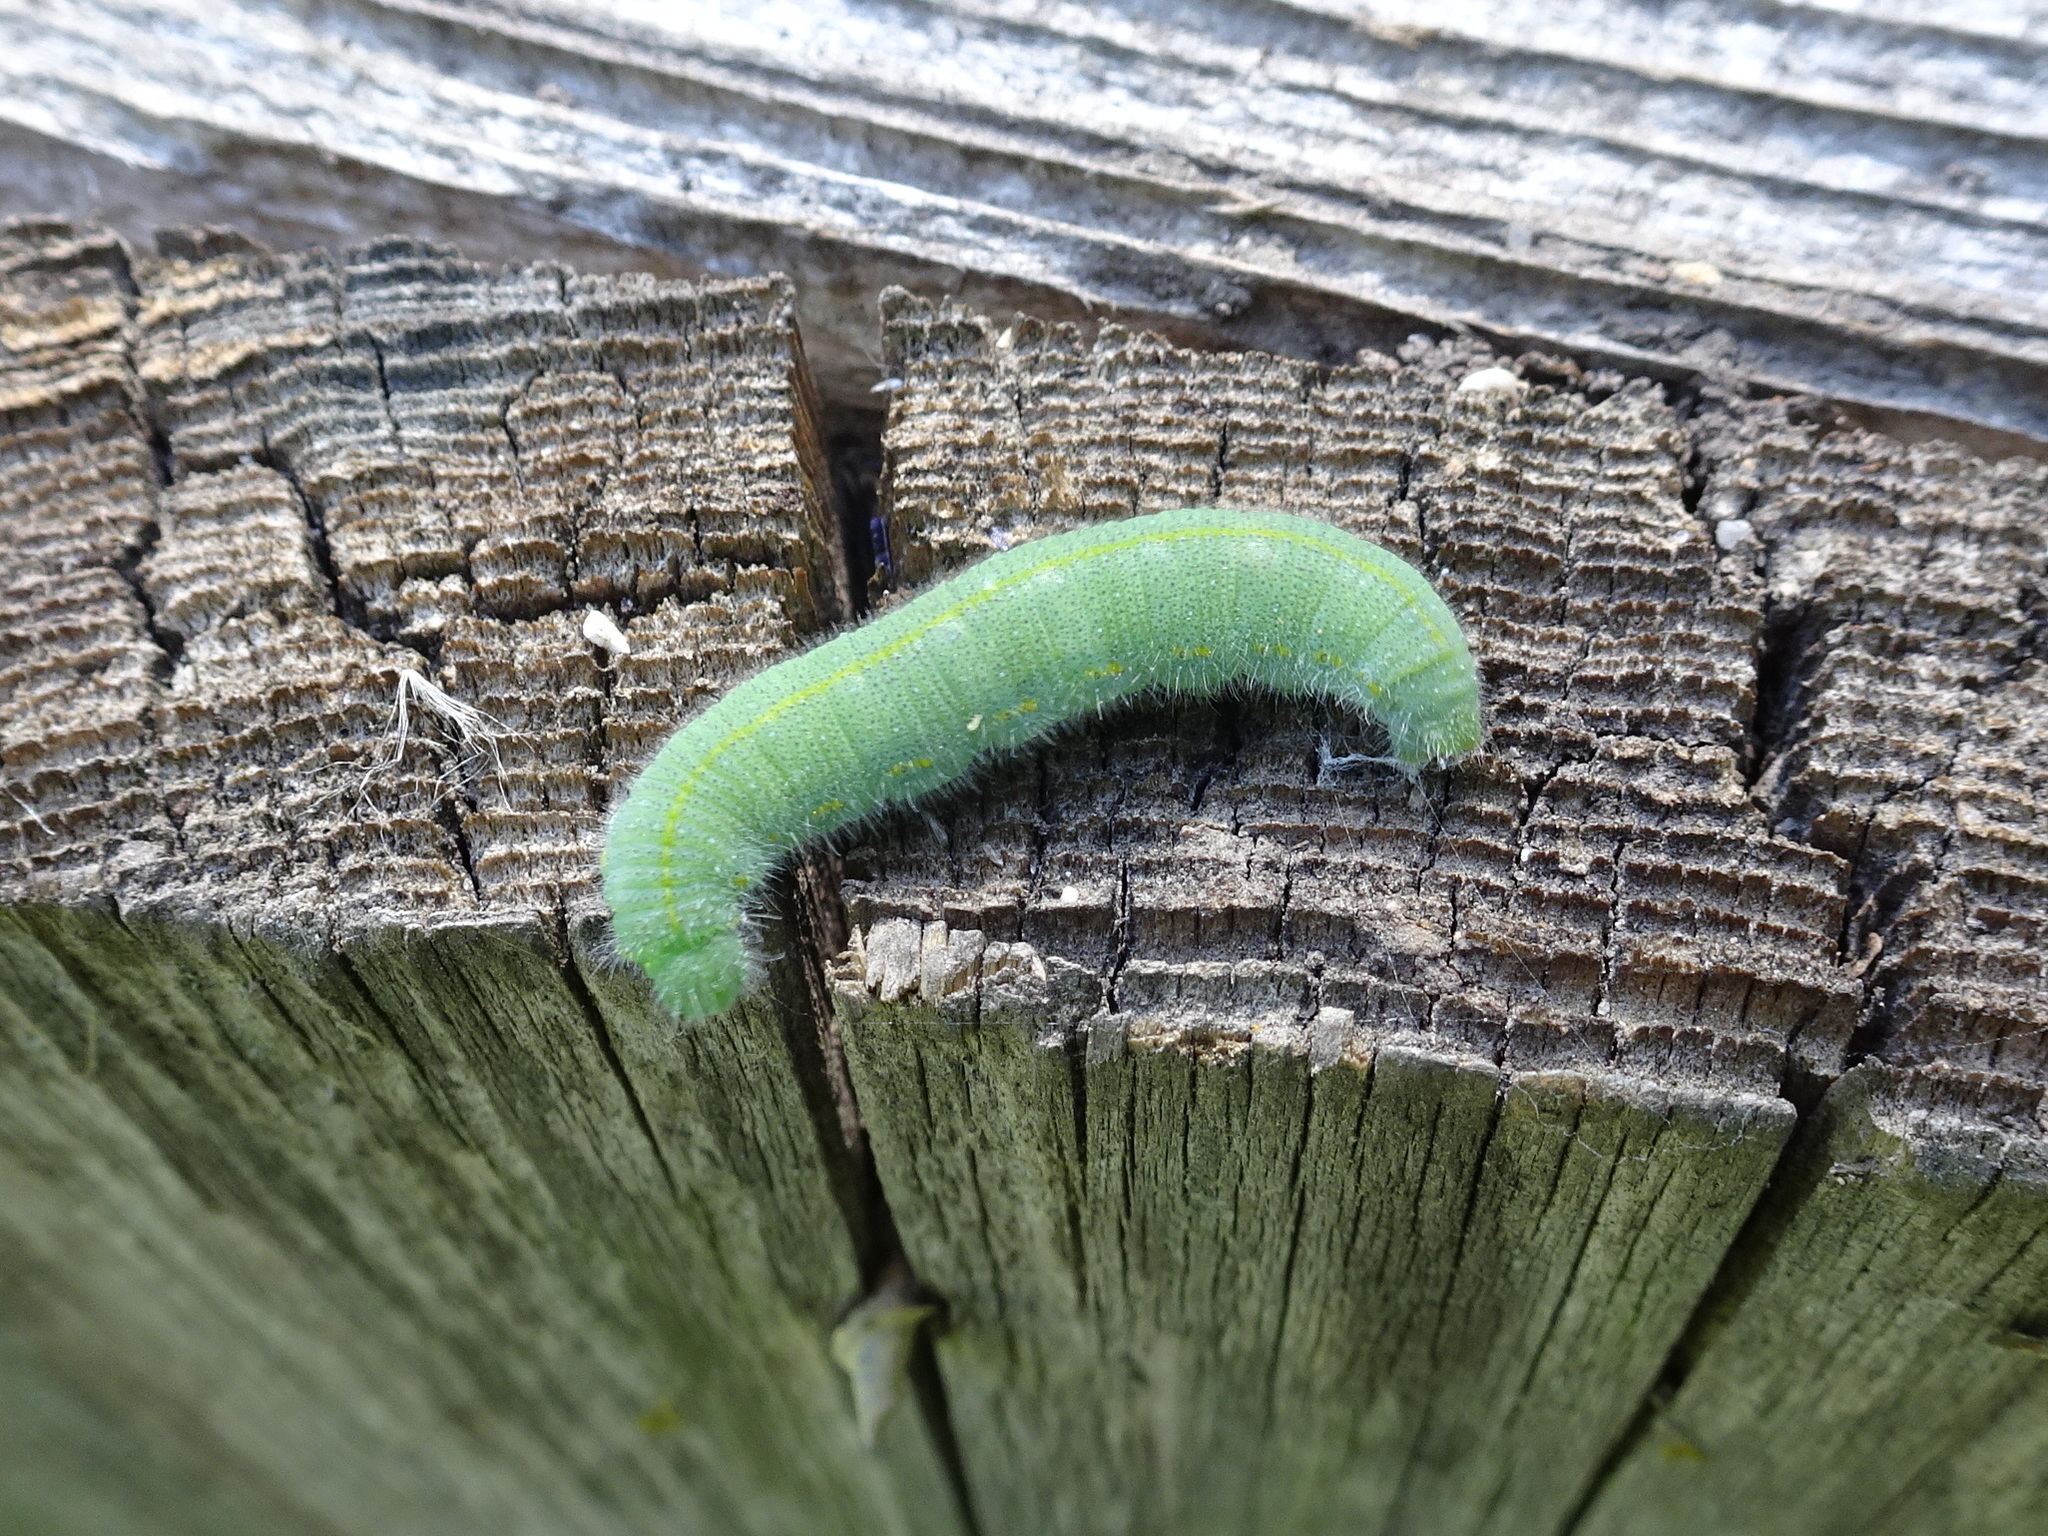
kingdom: Animalia
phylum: Arthropoda
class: Insecta
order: Lepidoptera
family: Pieridae
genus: Pieris
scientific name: Pieris rapae
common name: Small white
